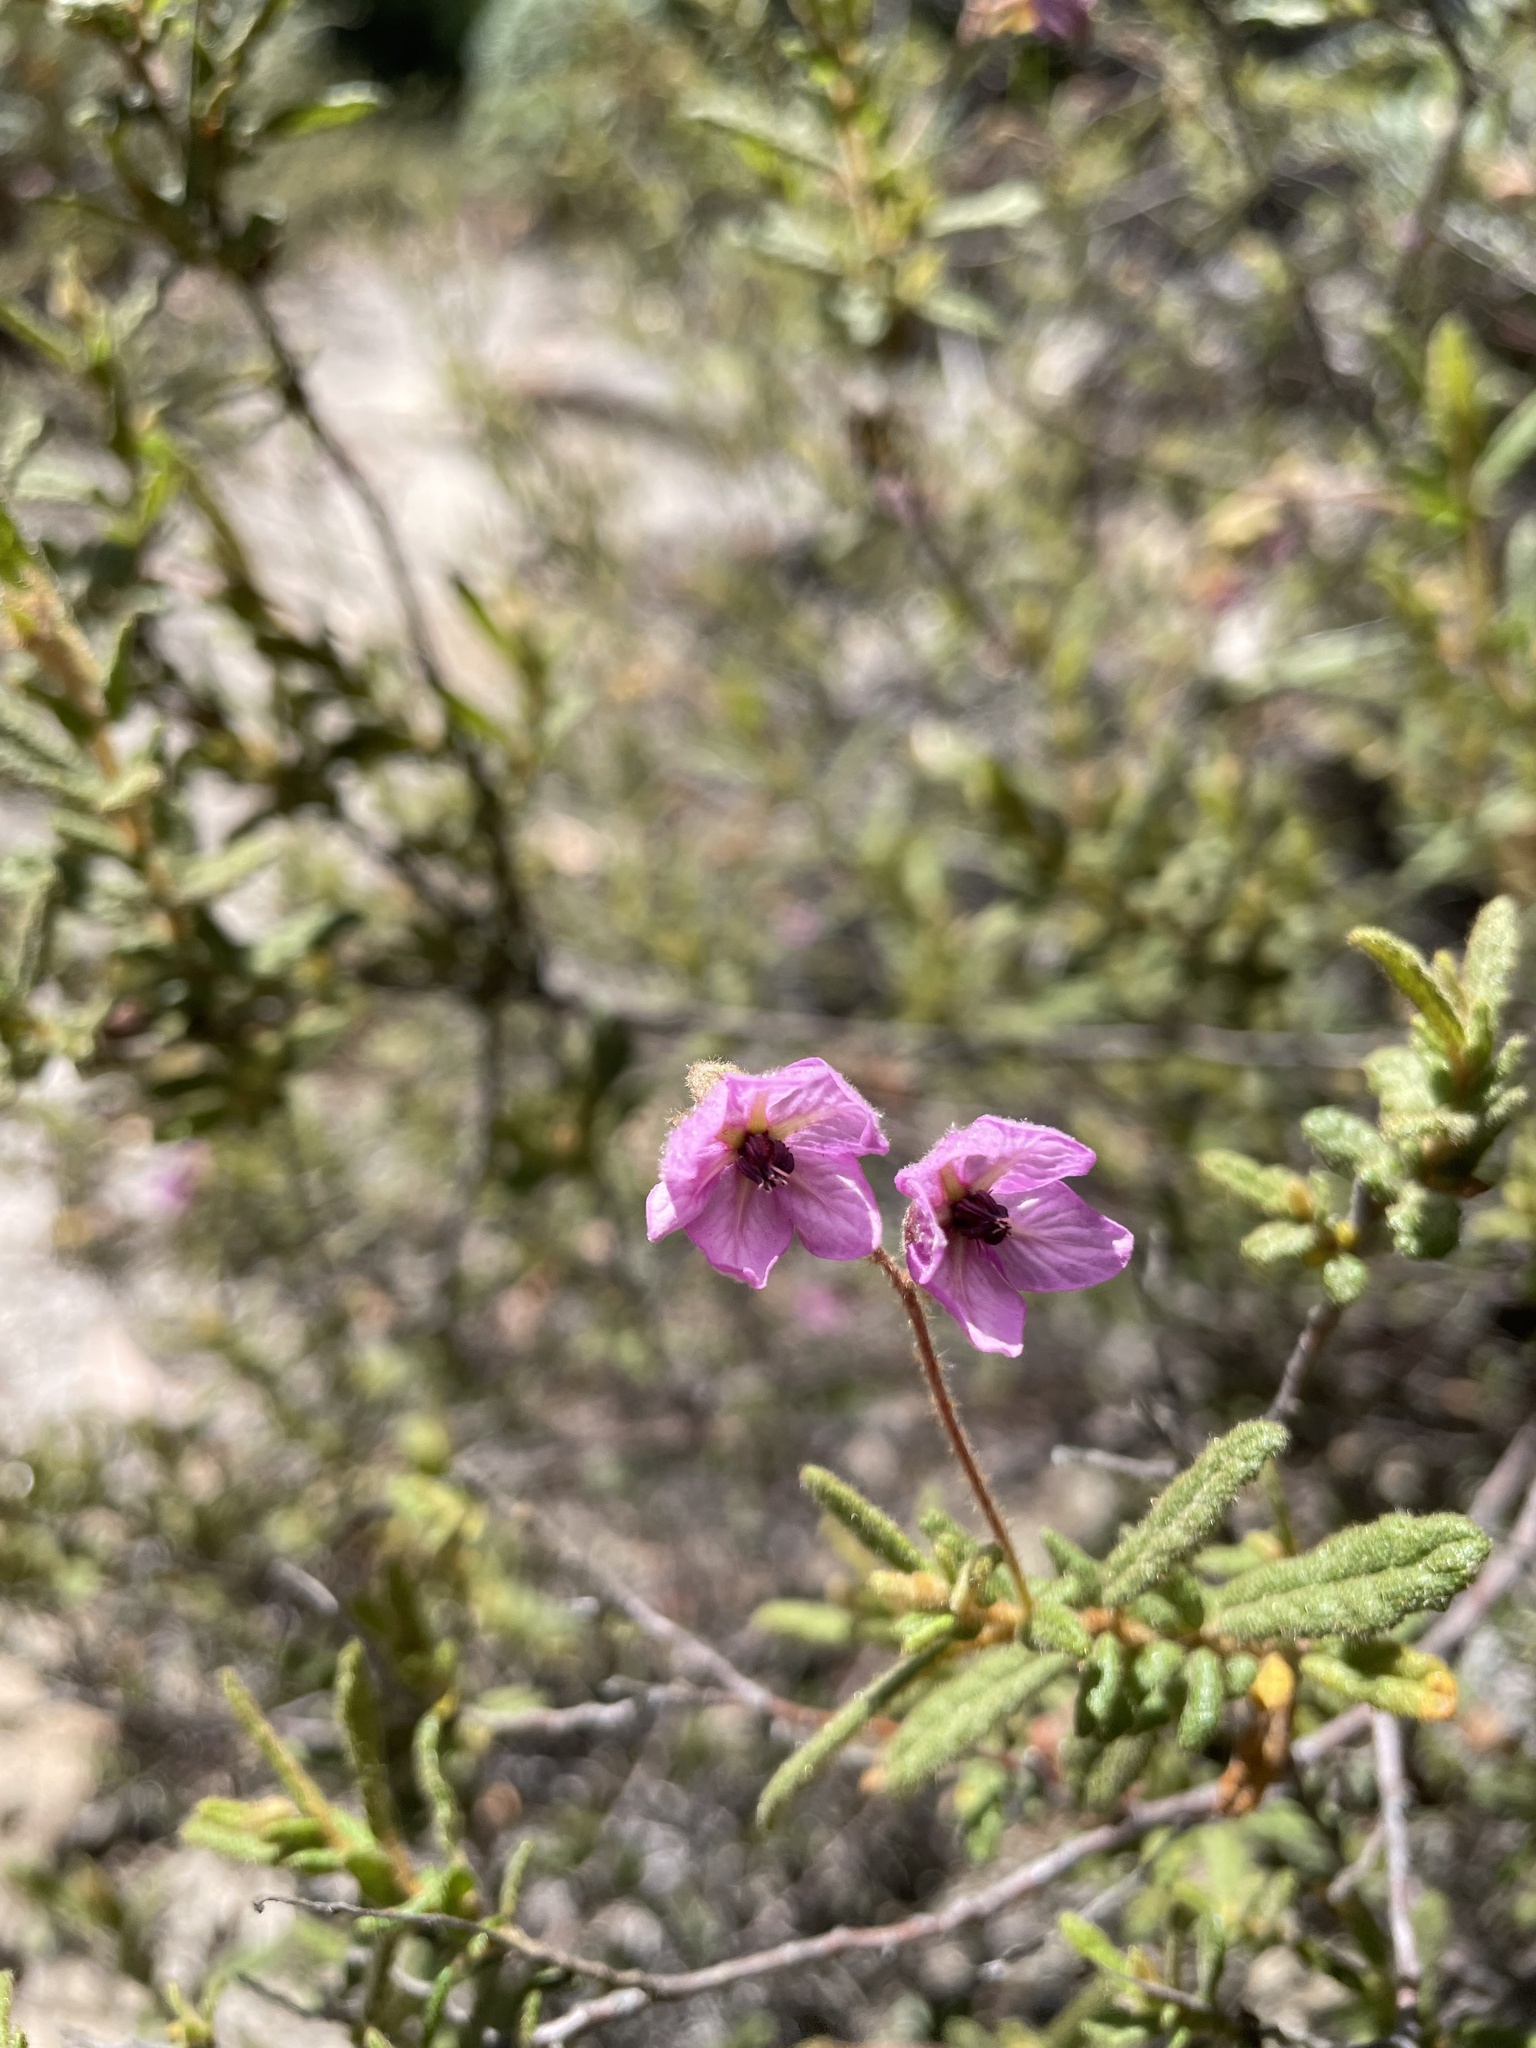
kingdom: Plantae
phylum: Tracheophyta
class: Magnoliopsida
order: Malvales
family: Malvaceae
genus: Thomasia
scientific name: Thomasia petalocalyx
